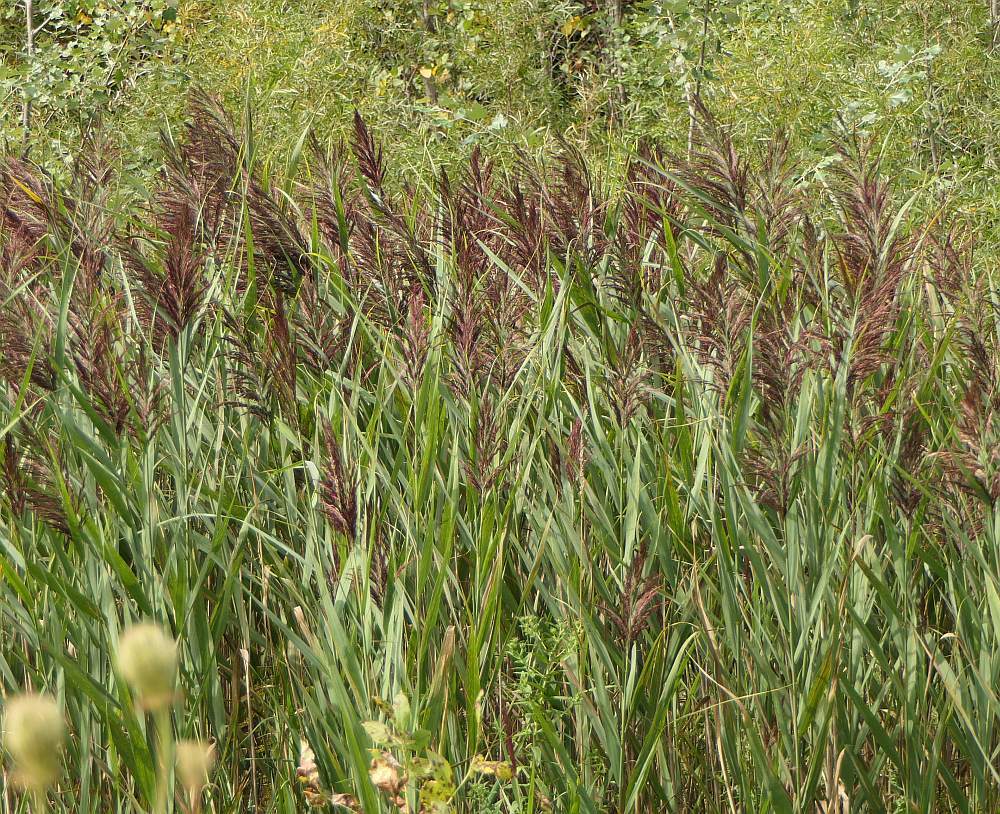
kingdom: Plantae
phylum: Tracheophyta
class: Liliopsida
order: Poales
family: Poaceae
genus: Phragmites
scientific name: Phragmites australis
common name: Common reed
